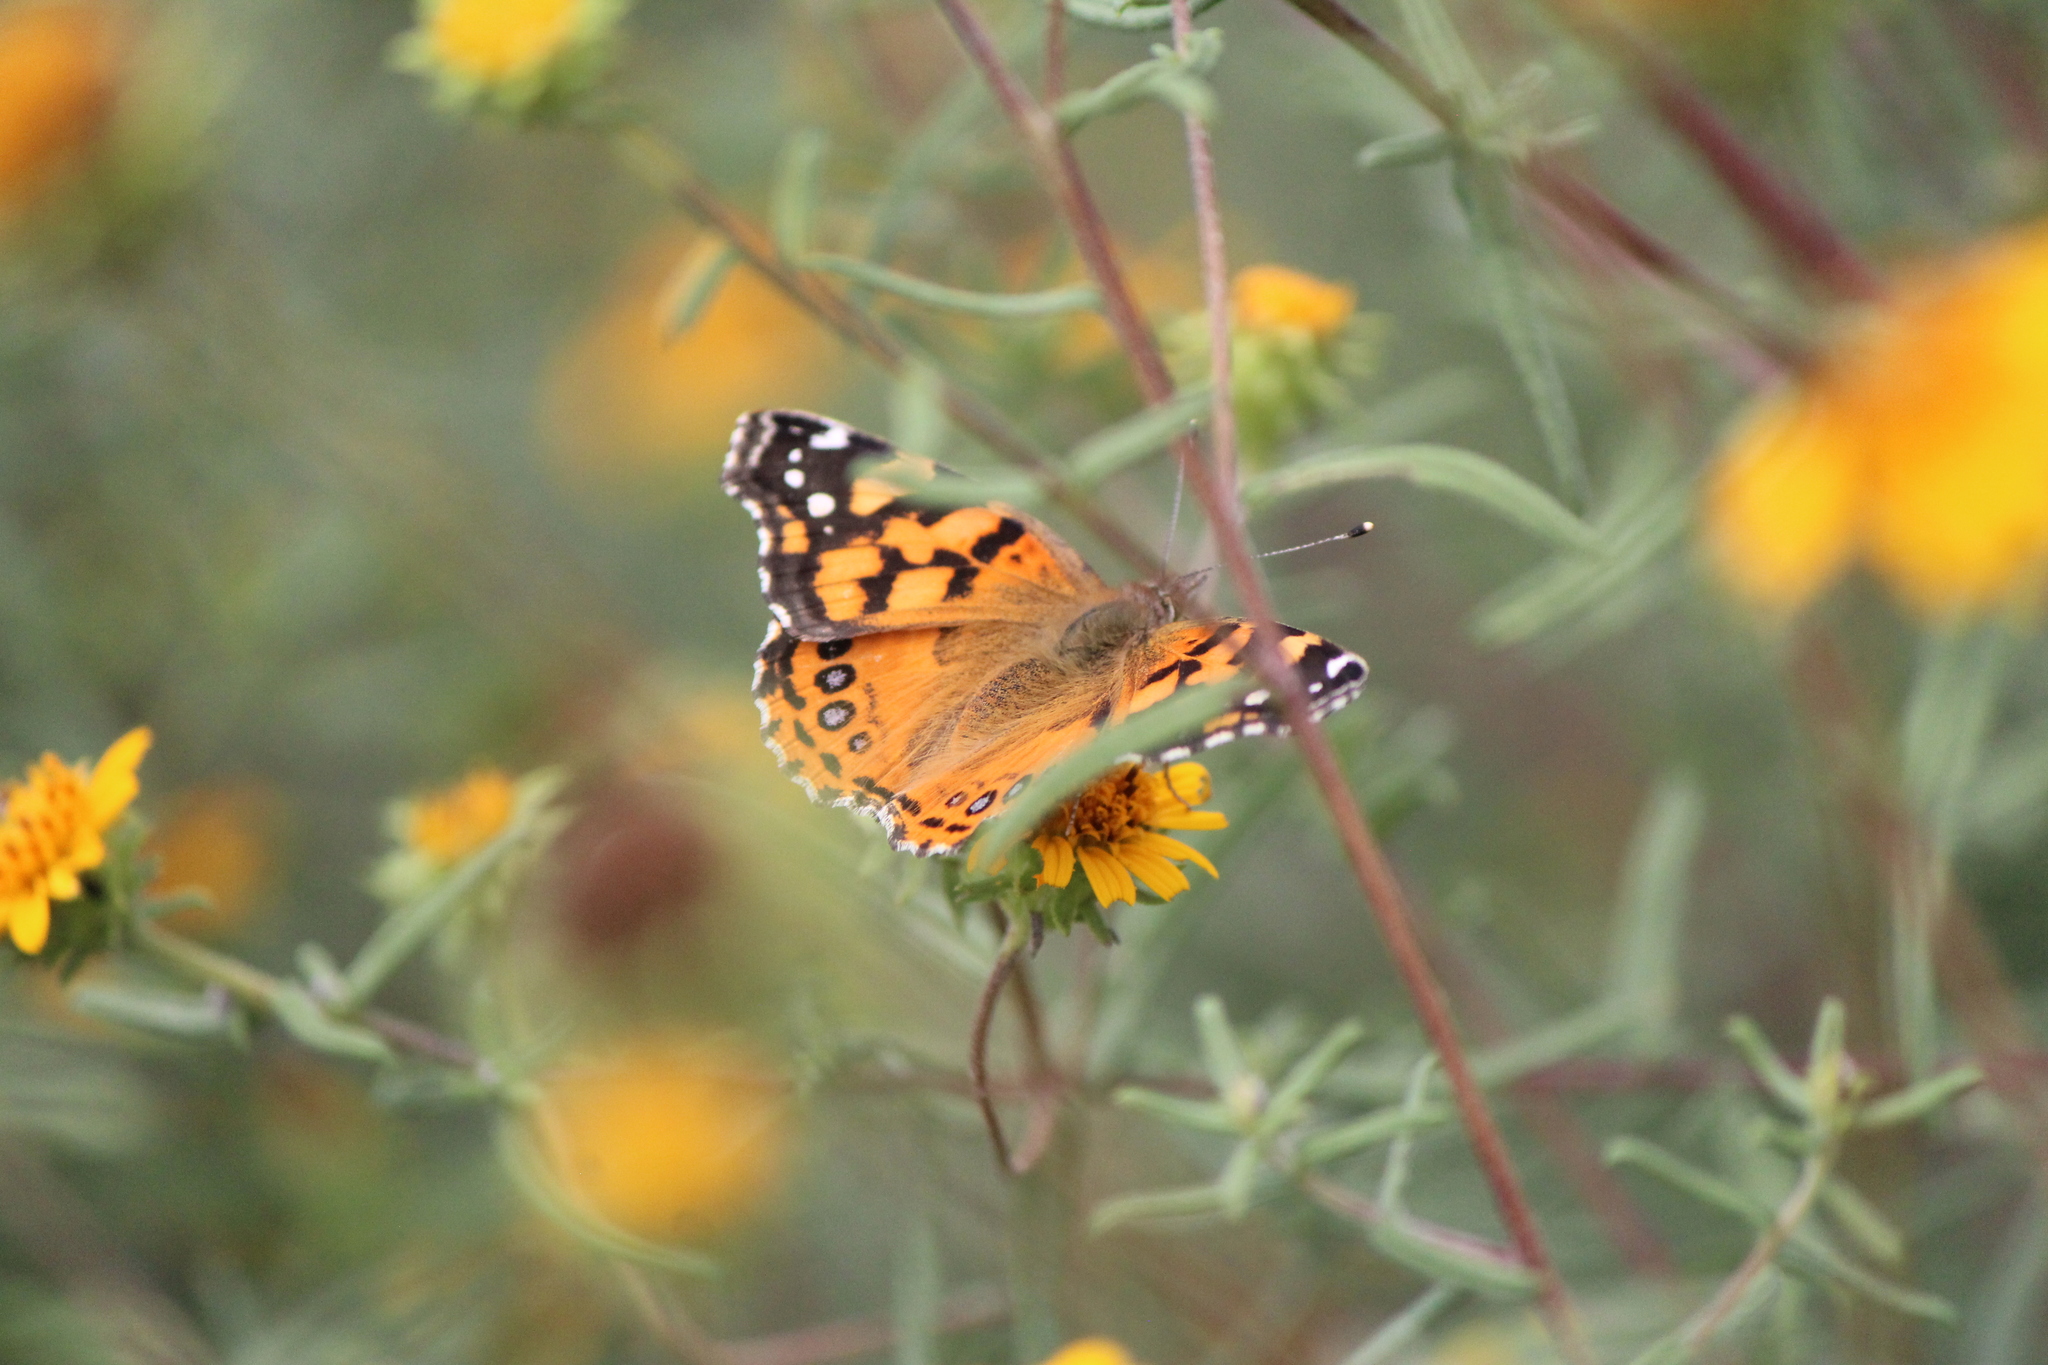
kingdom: Animalia
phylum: Arthropoda
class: Insecta
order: Lepidoptera
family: Nymphalidae
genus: Vanessa
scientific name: Vanessa annabella
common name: West coast lady
